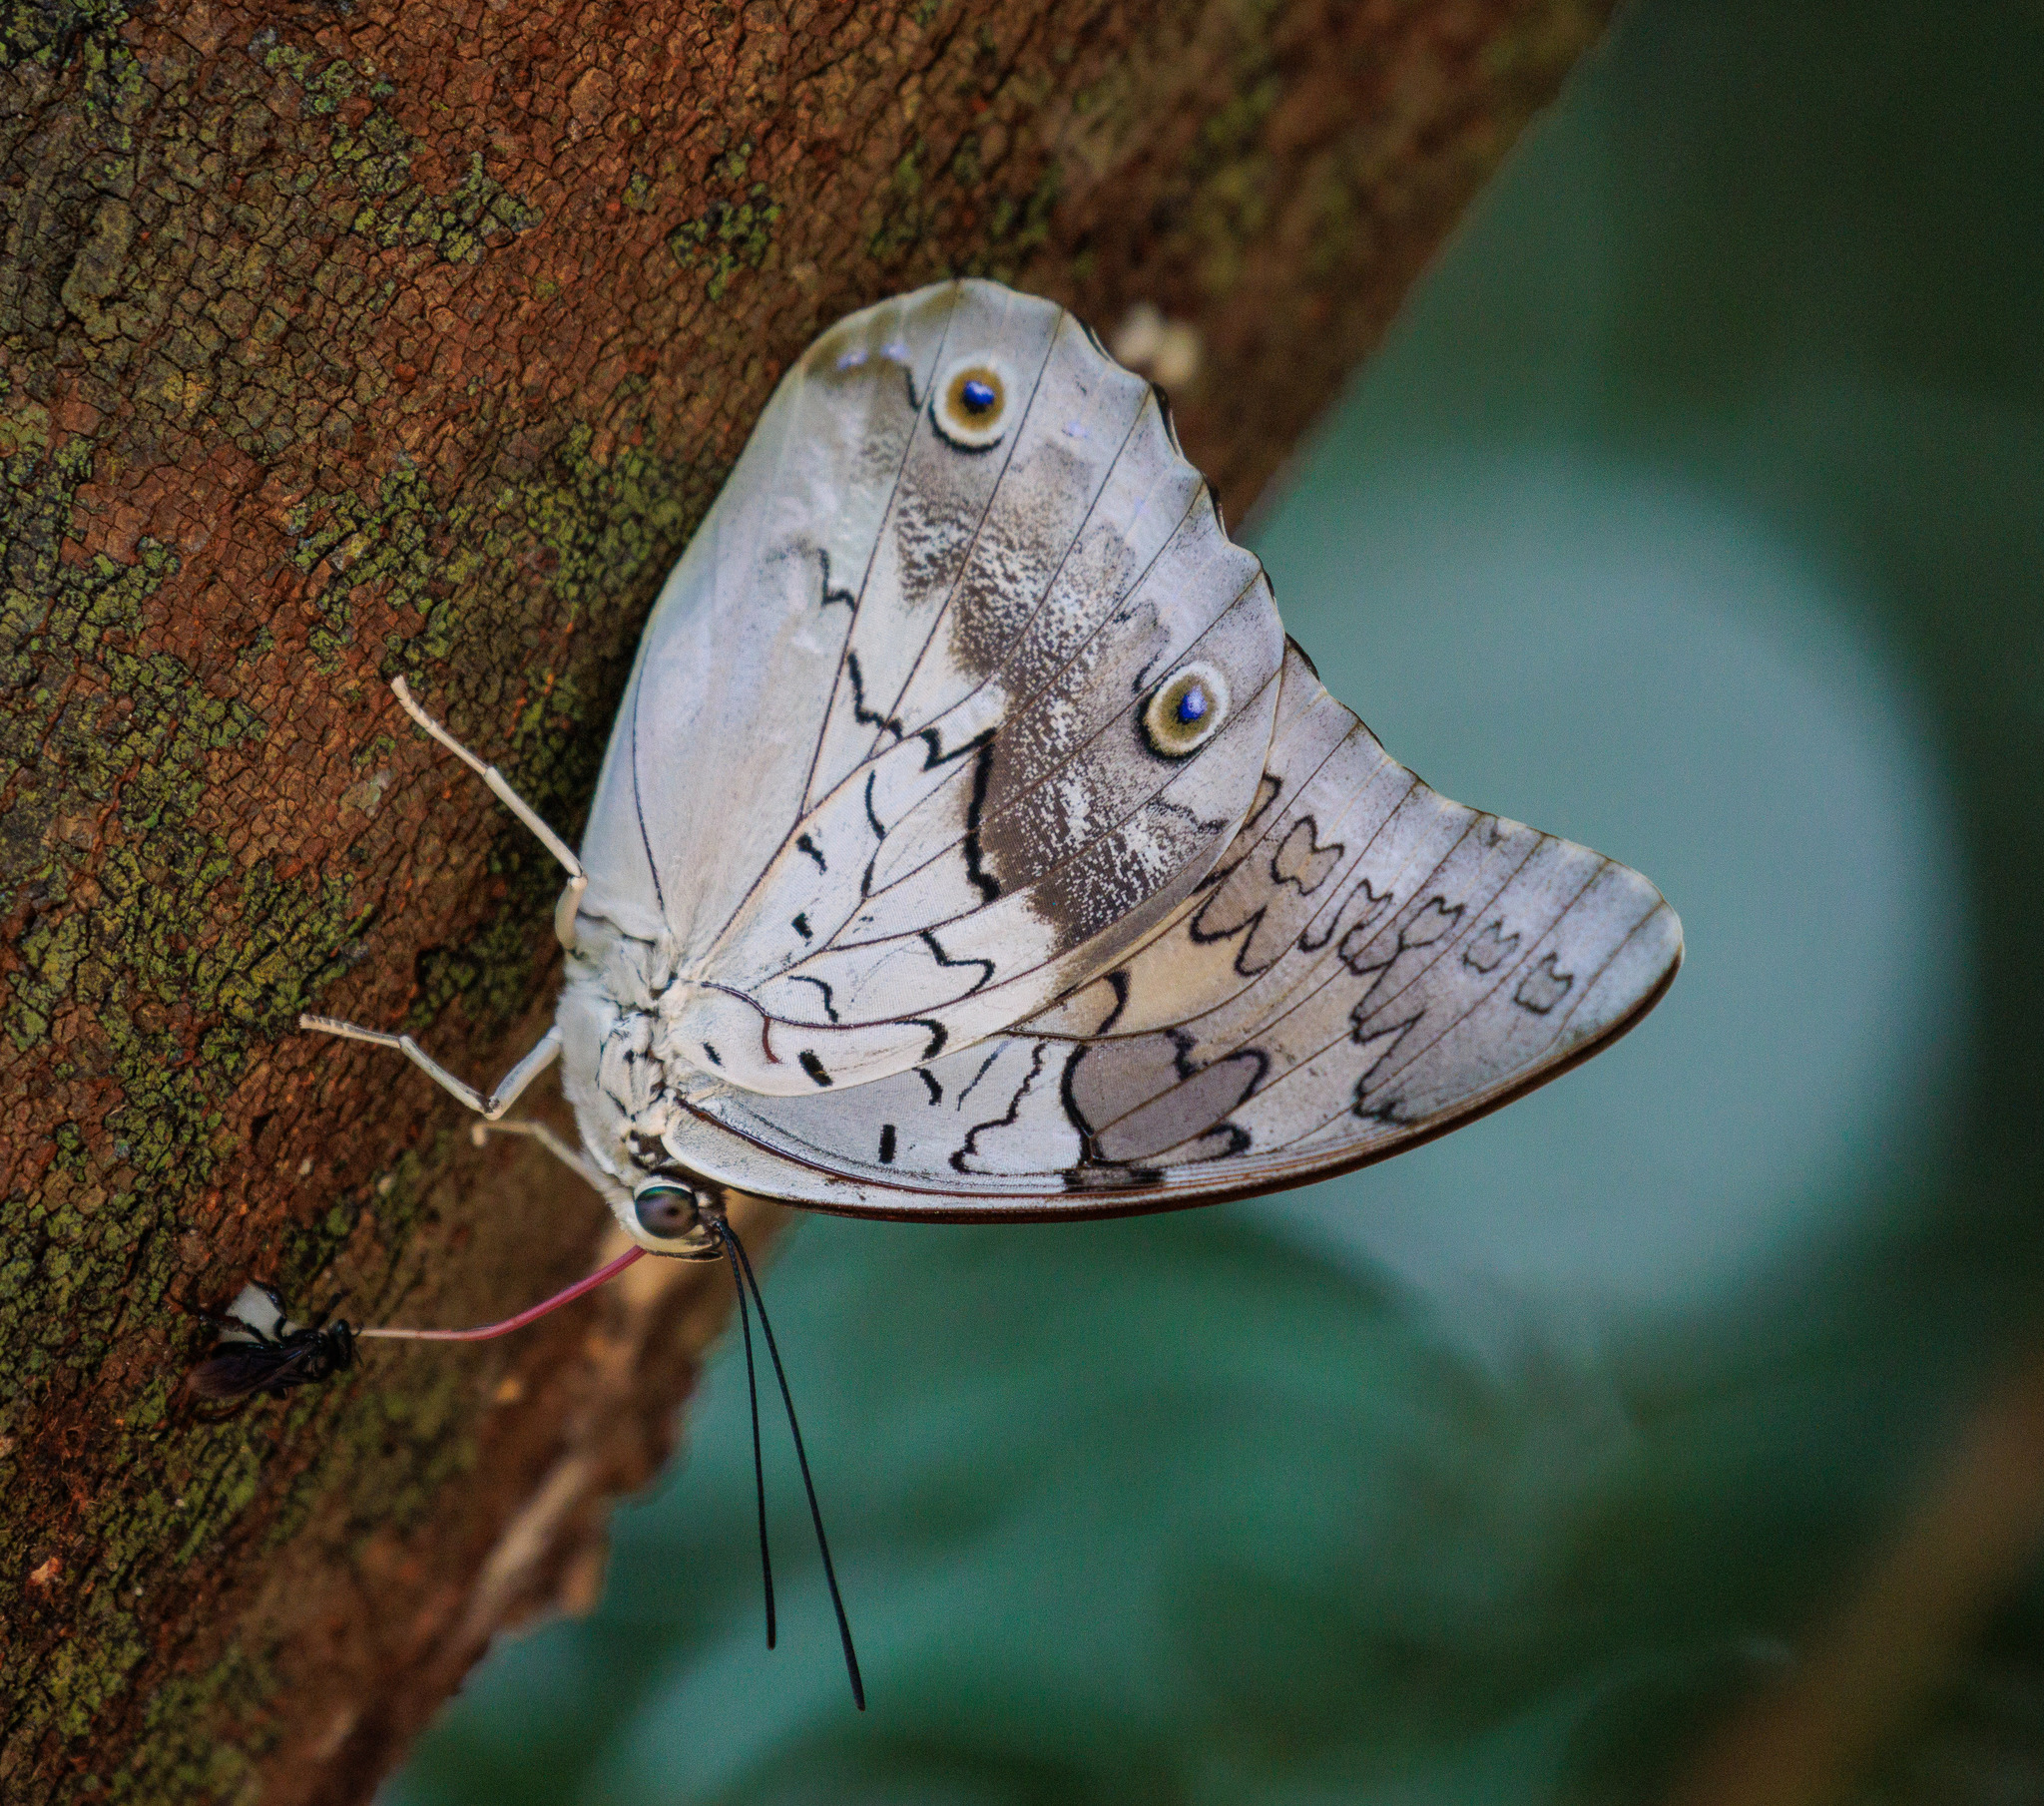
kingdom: Animalia
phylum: Arthropoda
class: Insecta
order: Lepidoptera
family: Nymphalidae
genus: Prepona
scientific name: Prepona laertes
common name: Butterfly
